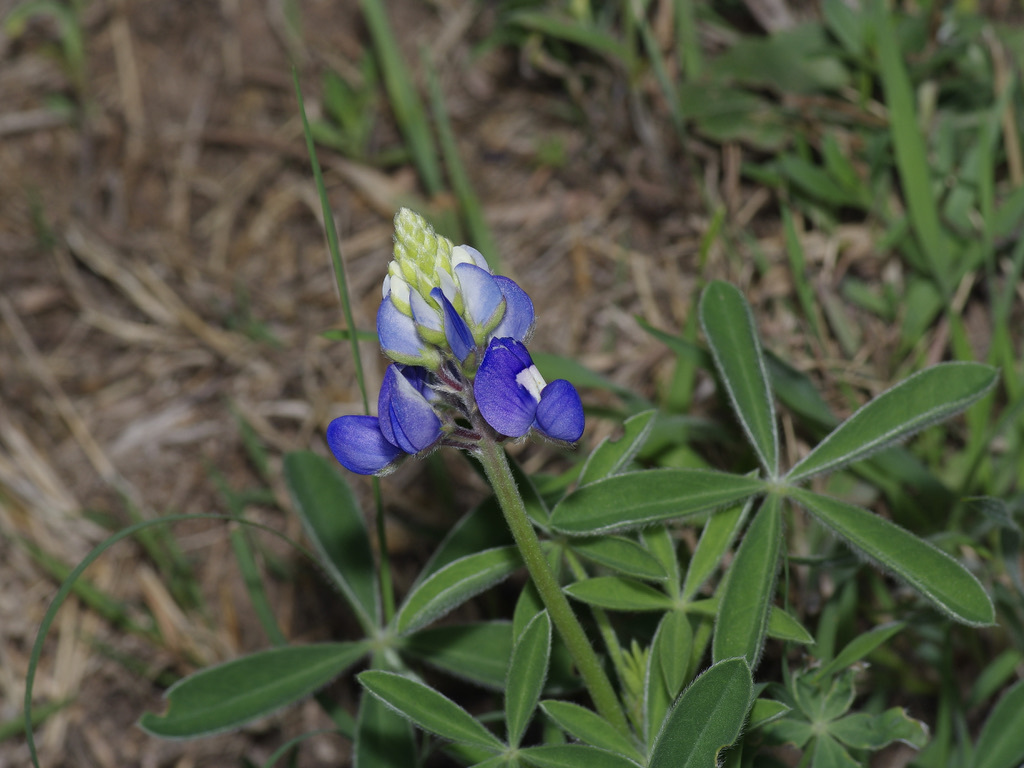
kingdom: Plantae
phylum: Tracheophyta
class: Magnoliopsida
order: Fabales
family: Fabaceae
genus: Lupinus
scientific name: Lupinus texensis
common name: Texas bluebonnet
